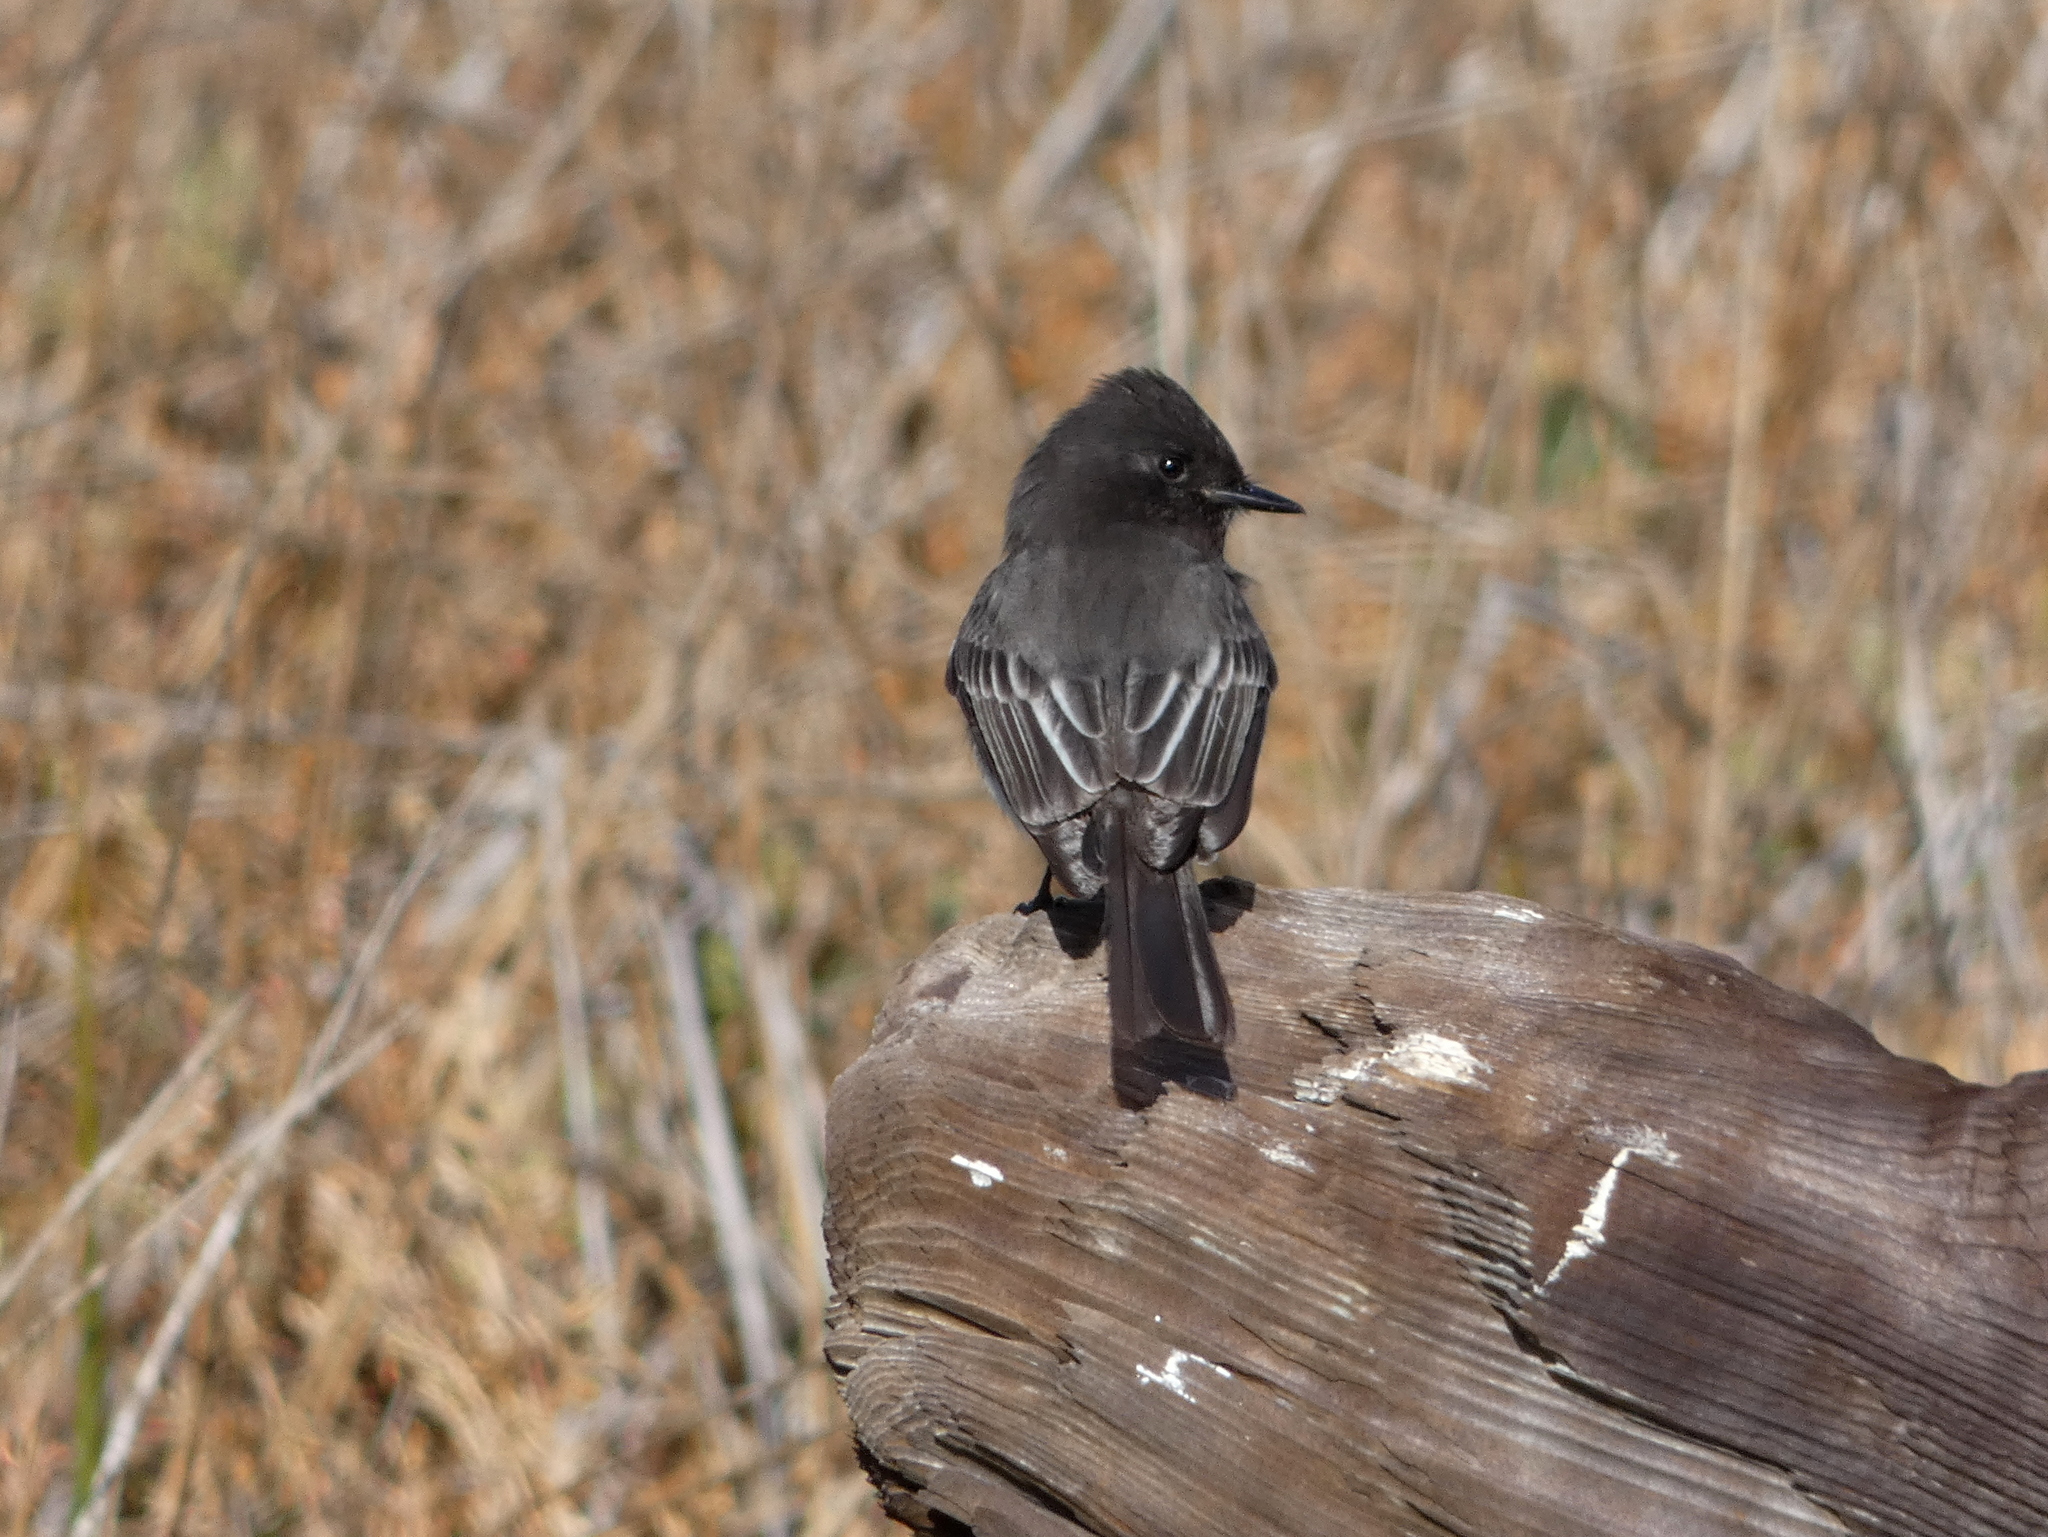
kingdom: Animalia
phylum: Chordata
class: Aves
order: Passeriformes
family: Tyrannidae
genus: Sayornis
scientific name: Sayornis nigricans
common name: Black phoebe
